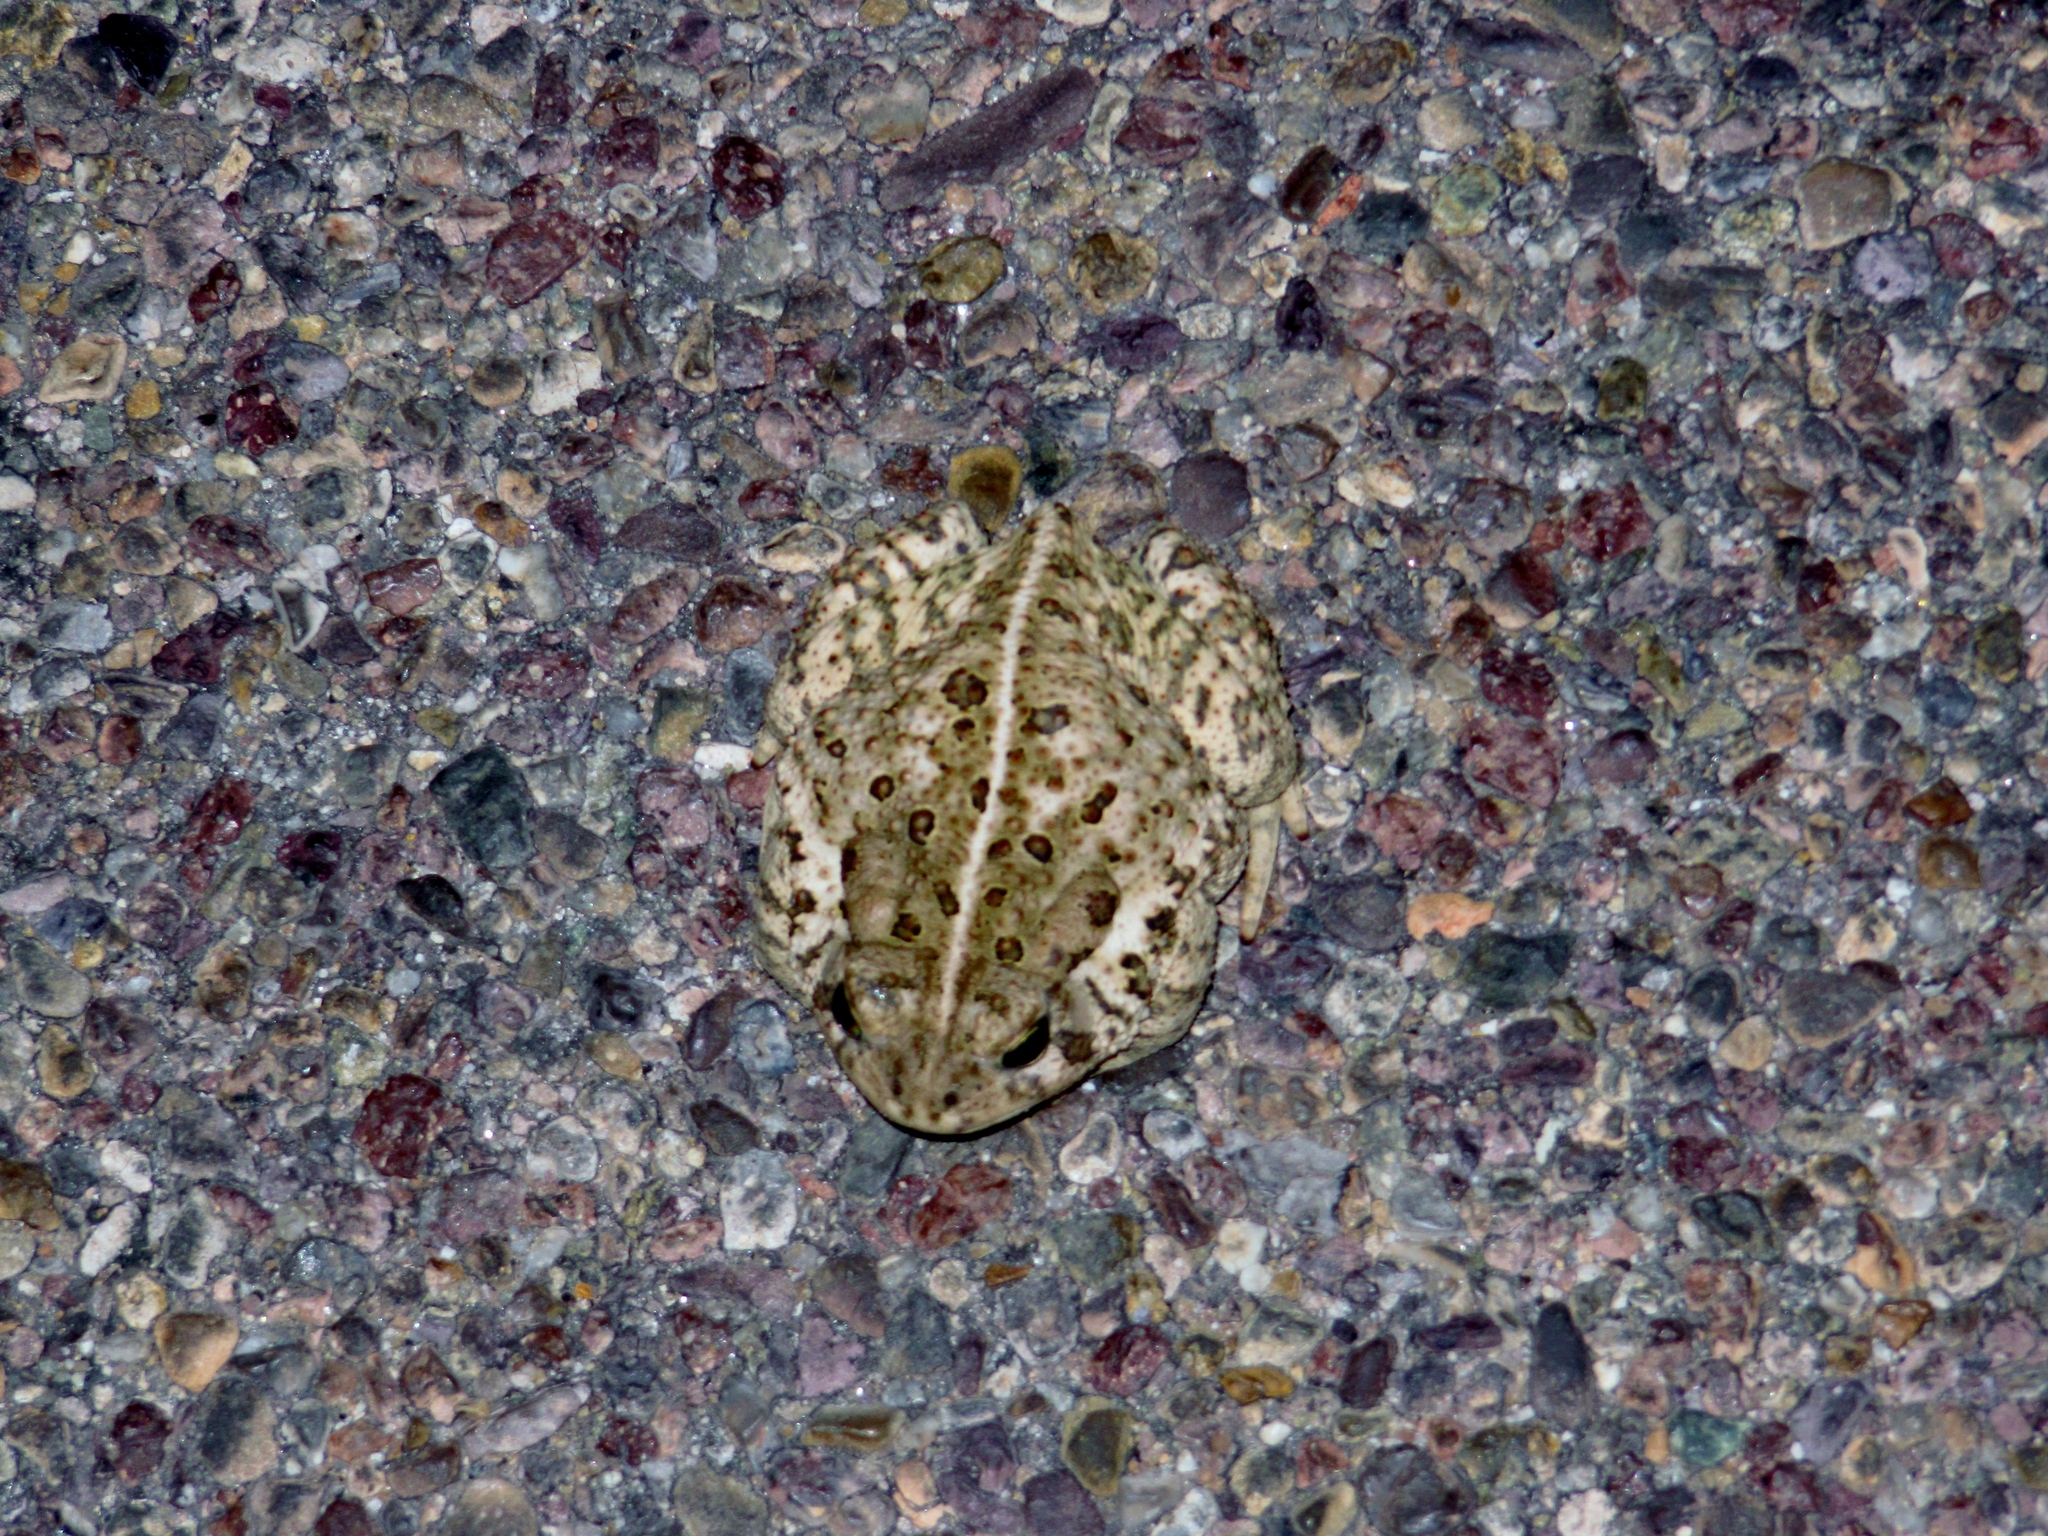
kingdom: Animalia
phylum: Chordata
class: Amphibia
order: Anura
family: Bufonidae
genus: Anaxyrus
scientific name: Anaxyrus woodhousii
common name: Woodhouse's toad
